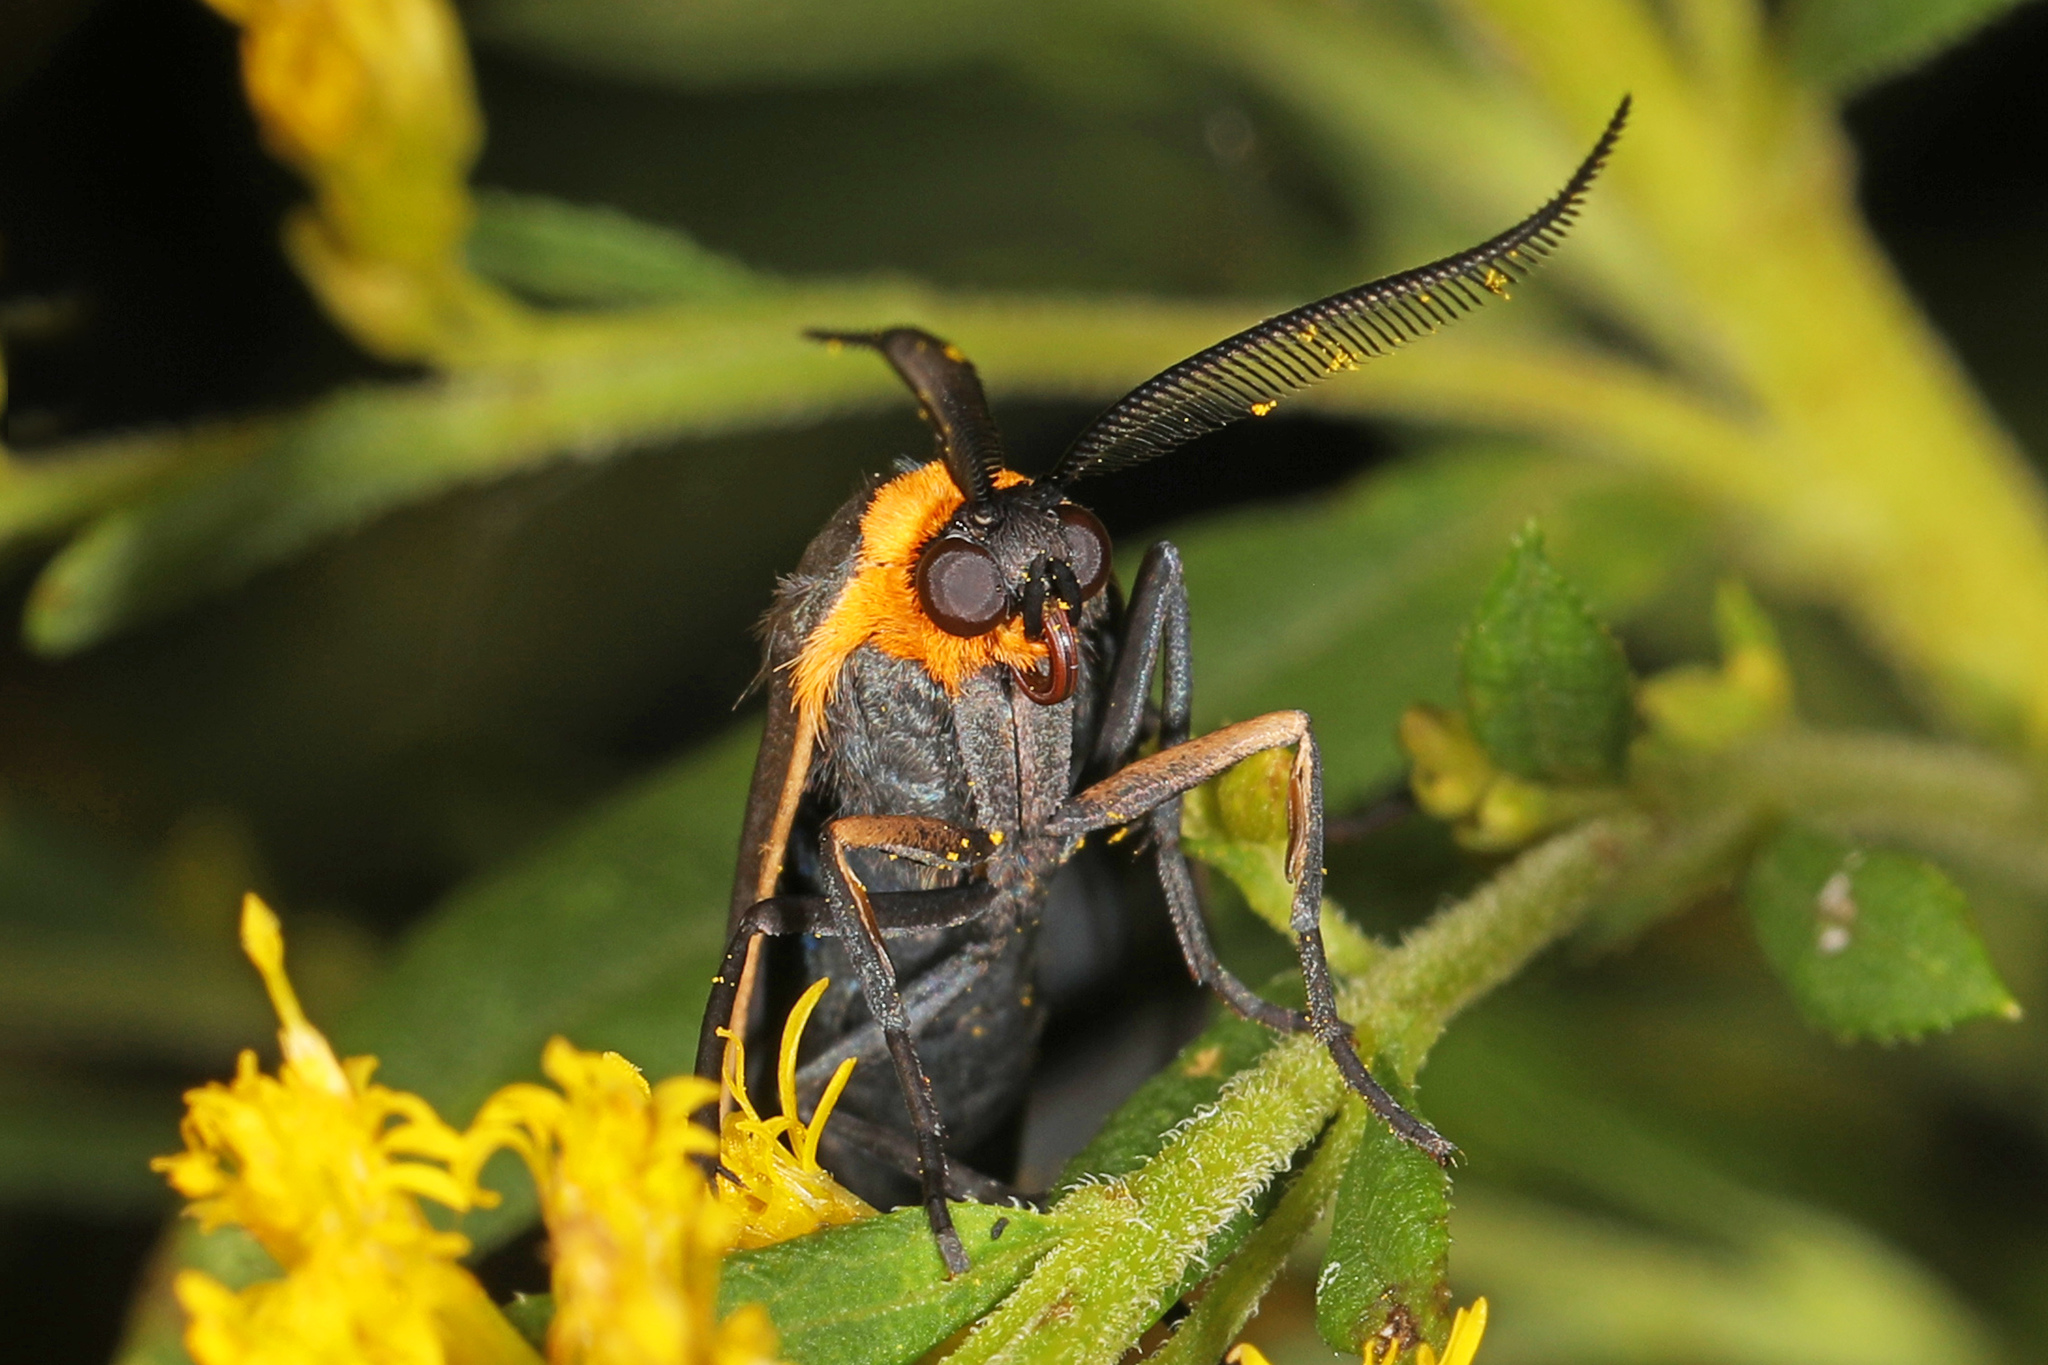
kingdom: Animalia
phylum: Arthropoda
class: Insecta
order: Lepidoptera
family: Erebidae
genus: Cisseps
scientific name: Cisseps fulvicollis
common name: Yellow-collared scape moth
